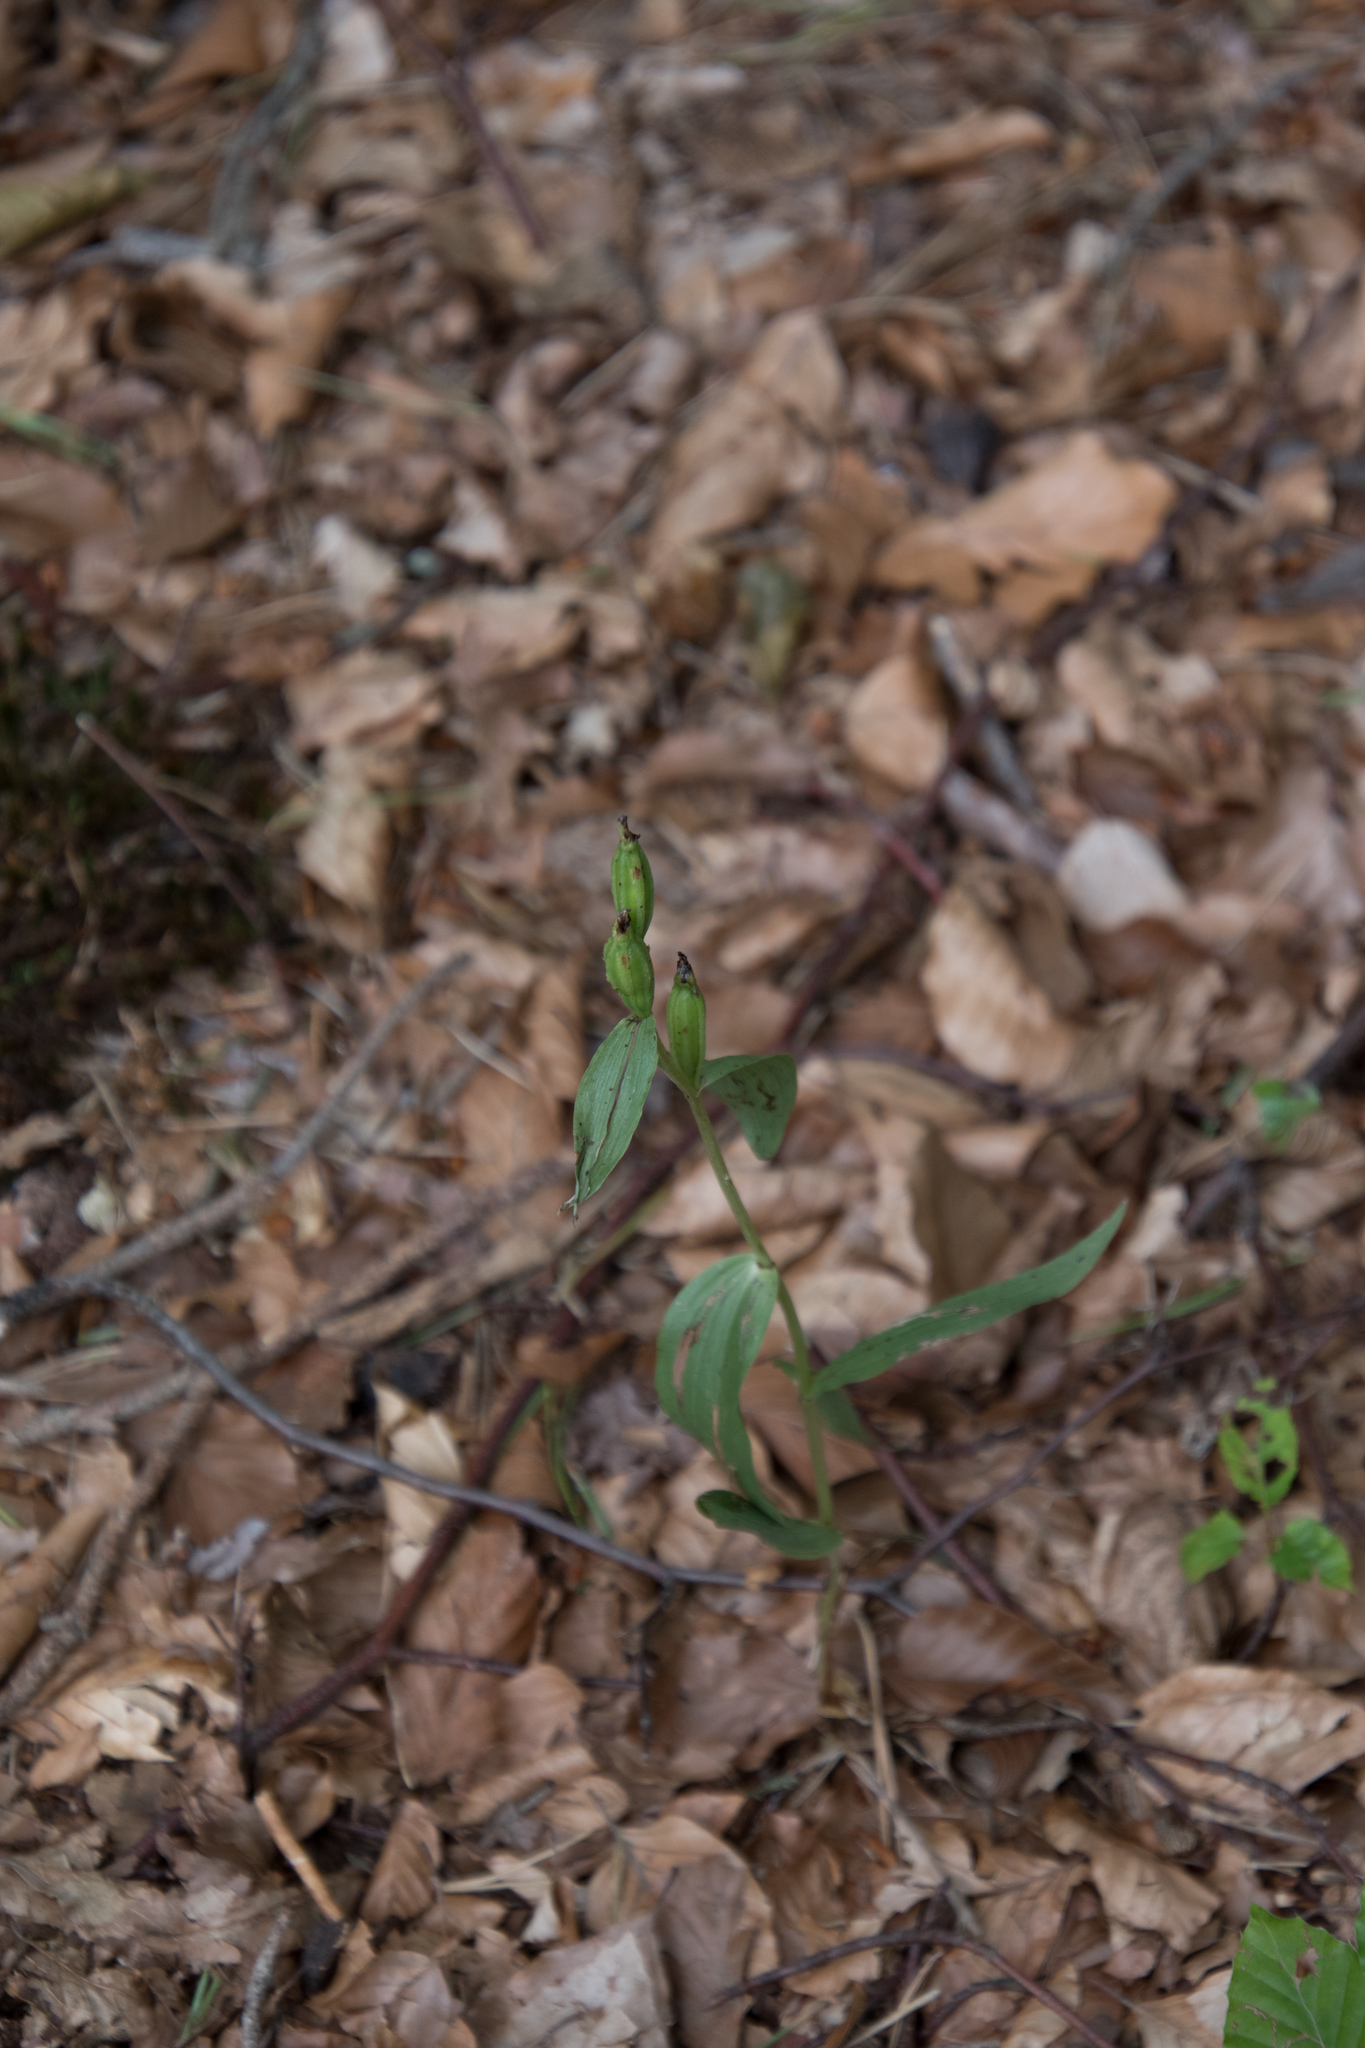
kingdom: Plantae
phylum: Tracheophyta
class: Liliopsida
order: Asparagales
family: Orchidaceae
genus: Cephalanthera
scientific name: Cephalanthera damasonium
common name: White helleborine
